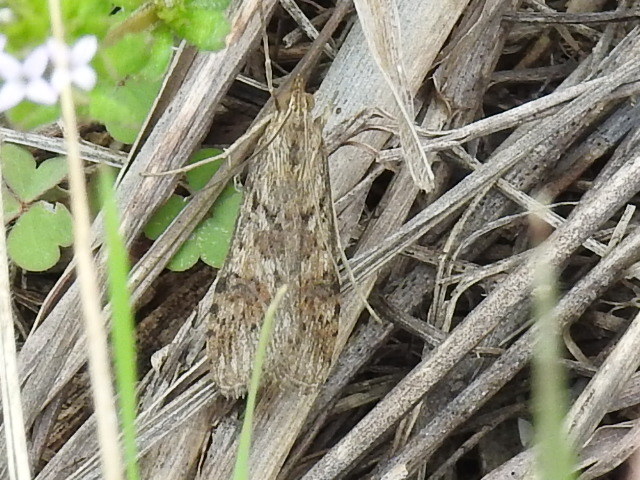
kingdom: Animalia
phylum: Arthropoda
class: Insecta
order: Lepidoptera
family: Crambidae
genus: Nomophila
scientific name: Nomophila nearctica
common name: American rush veneer
